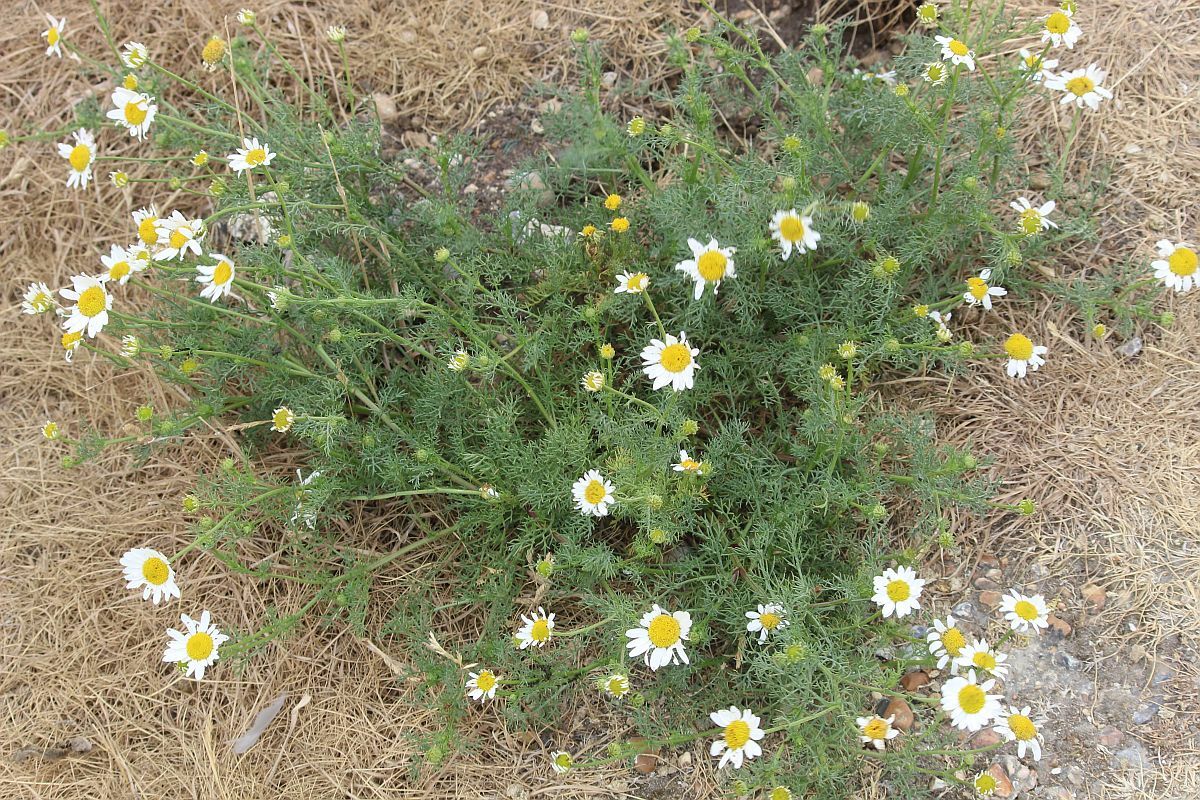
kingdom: Plantae
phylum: Tracheophyta
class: Magnoliopsida
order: Asterales
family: Asteraceae
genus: Tripleurospermum
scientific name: Tripleurospermum maritimum
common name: Sea mayweed
